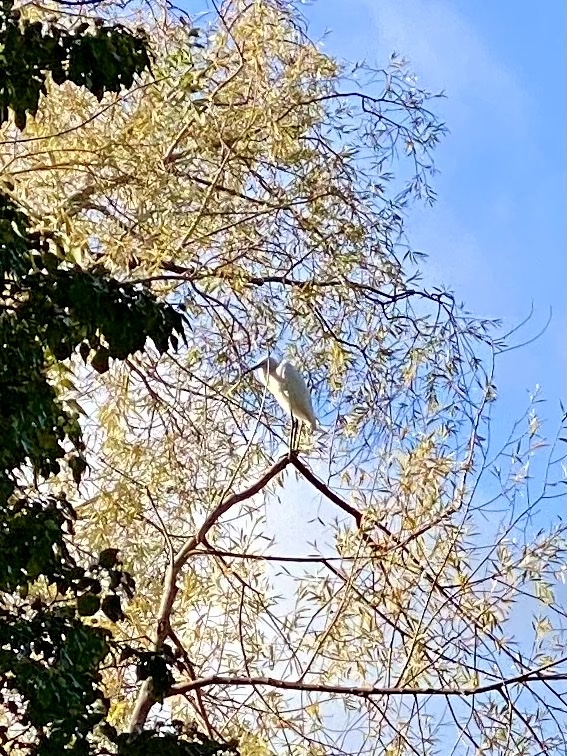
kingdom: Animalia
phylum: Chordata
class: Aves
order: Pelecaniformes
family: Ardeidae
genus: Egretta
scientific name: Egretta garzetta
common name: Little egret
